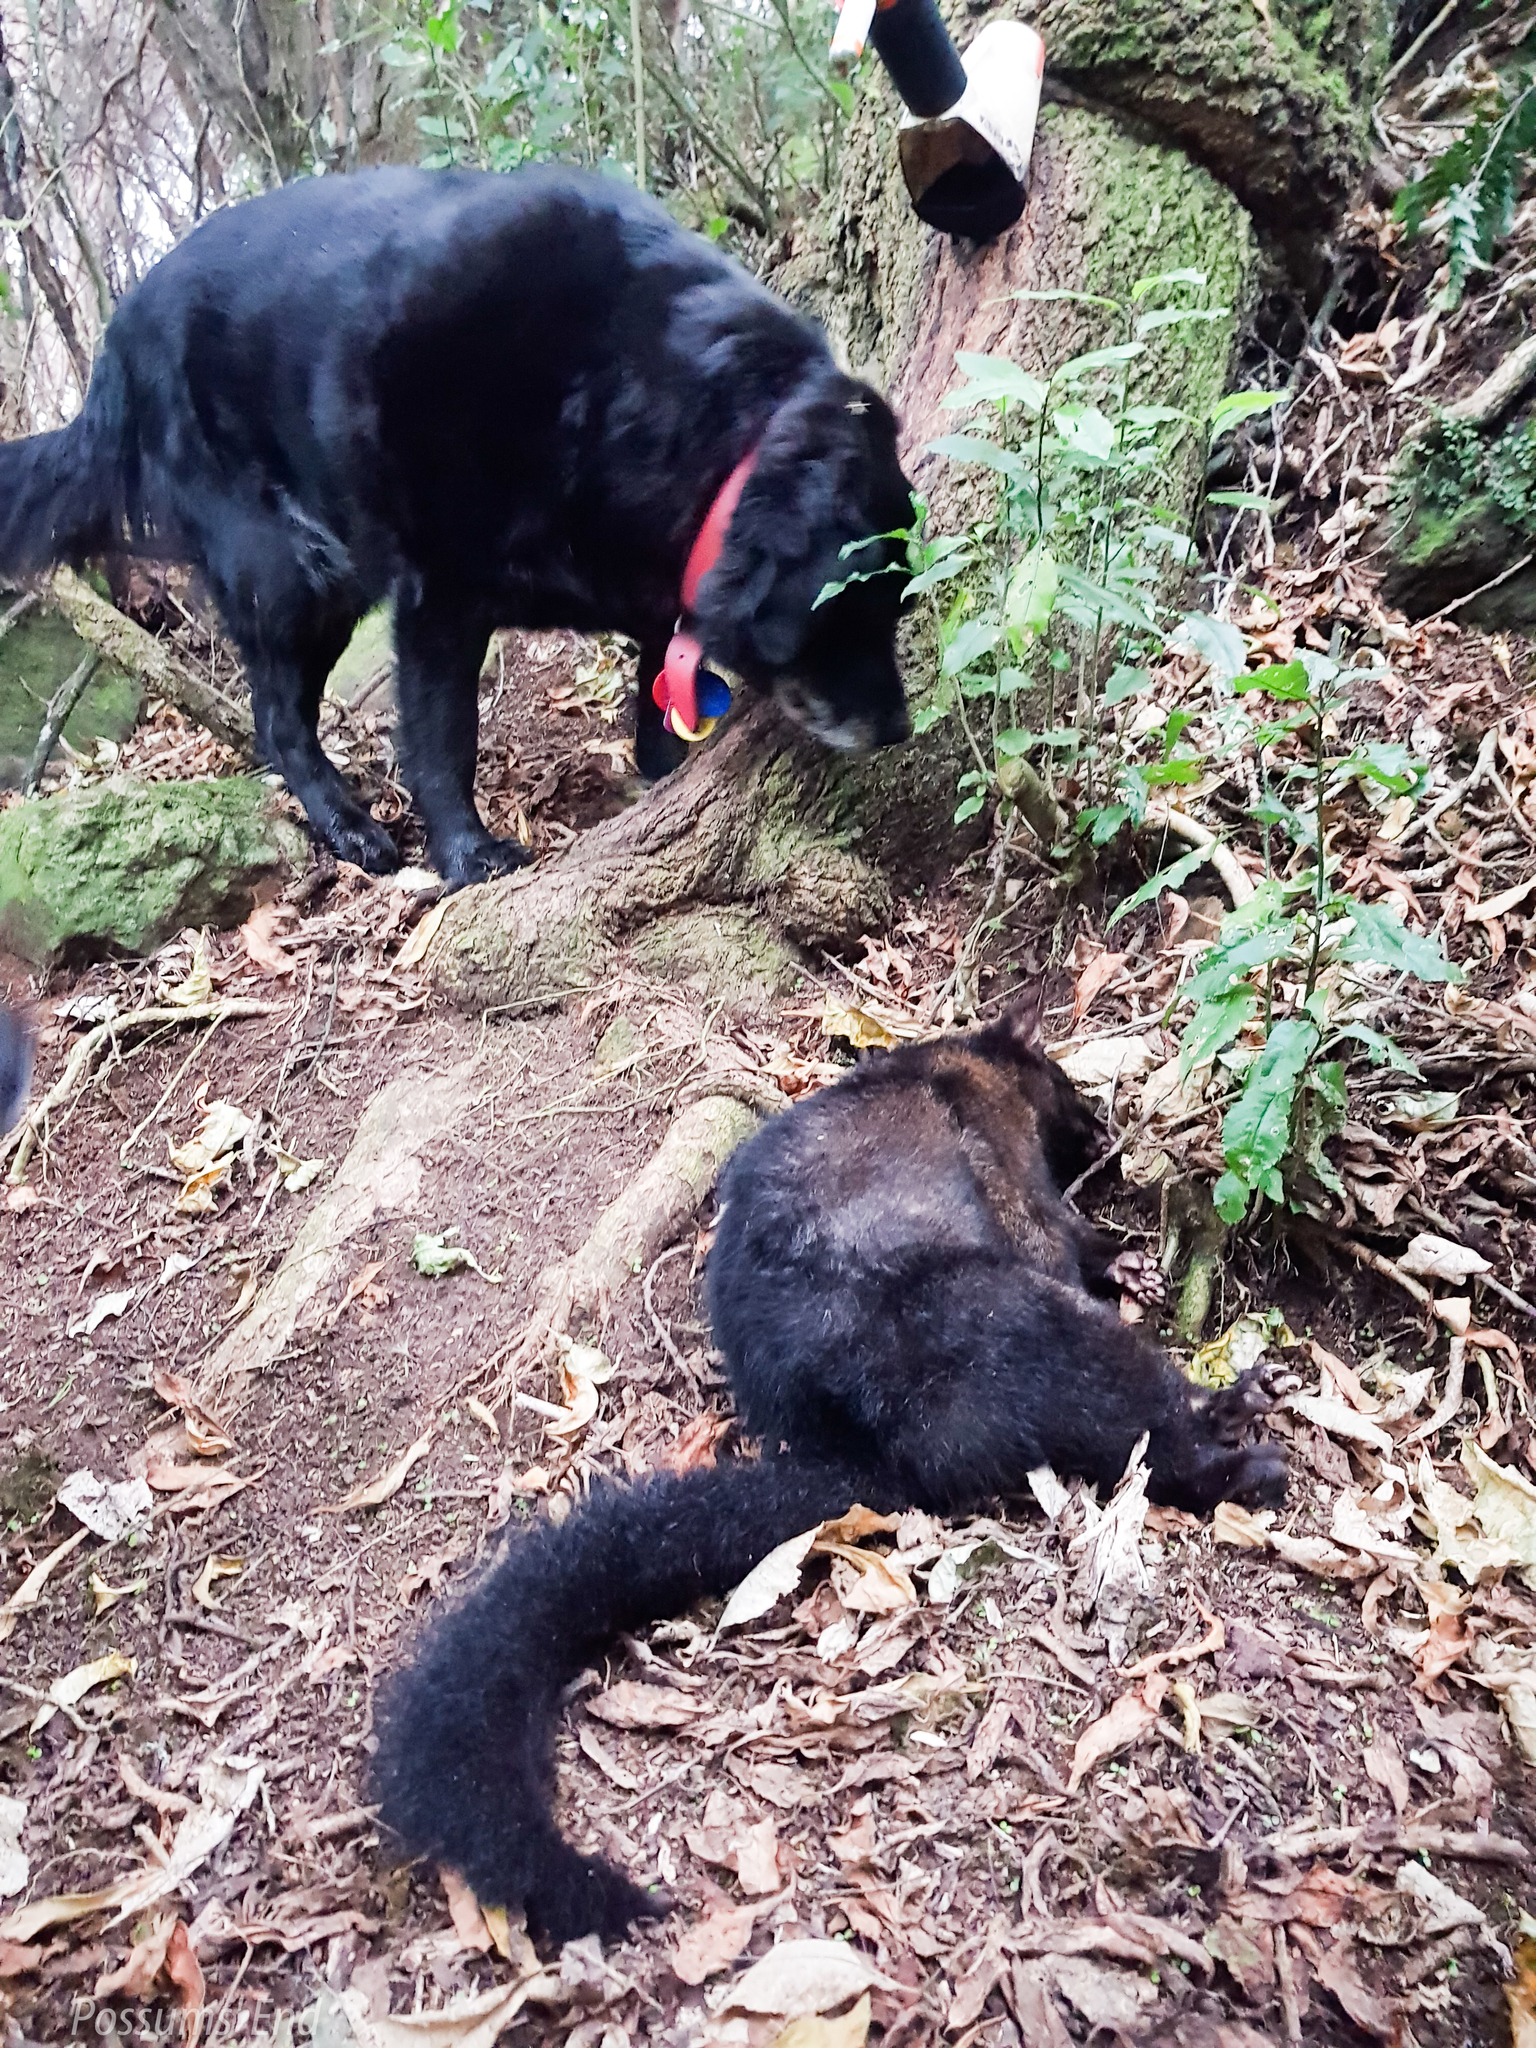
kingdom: Animalia
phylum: Chordata
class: Mammalia
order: Diprotodontia
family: Phalangeridae
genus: Trichosurus
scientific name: Trichosurus vulpecula
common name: Common brushtail
